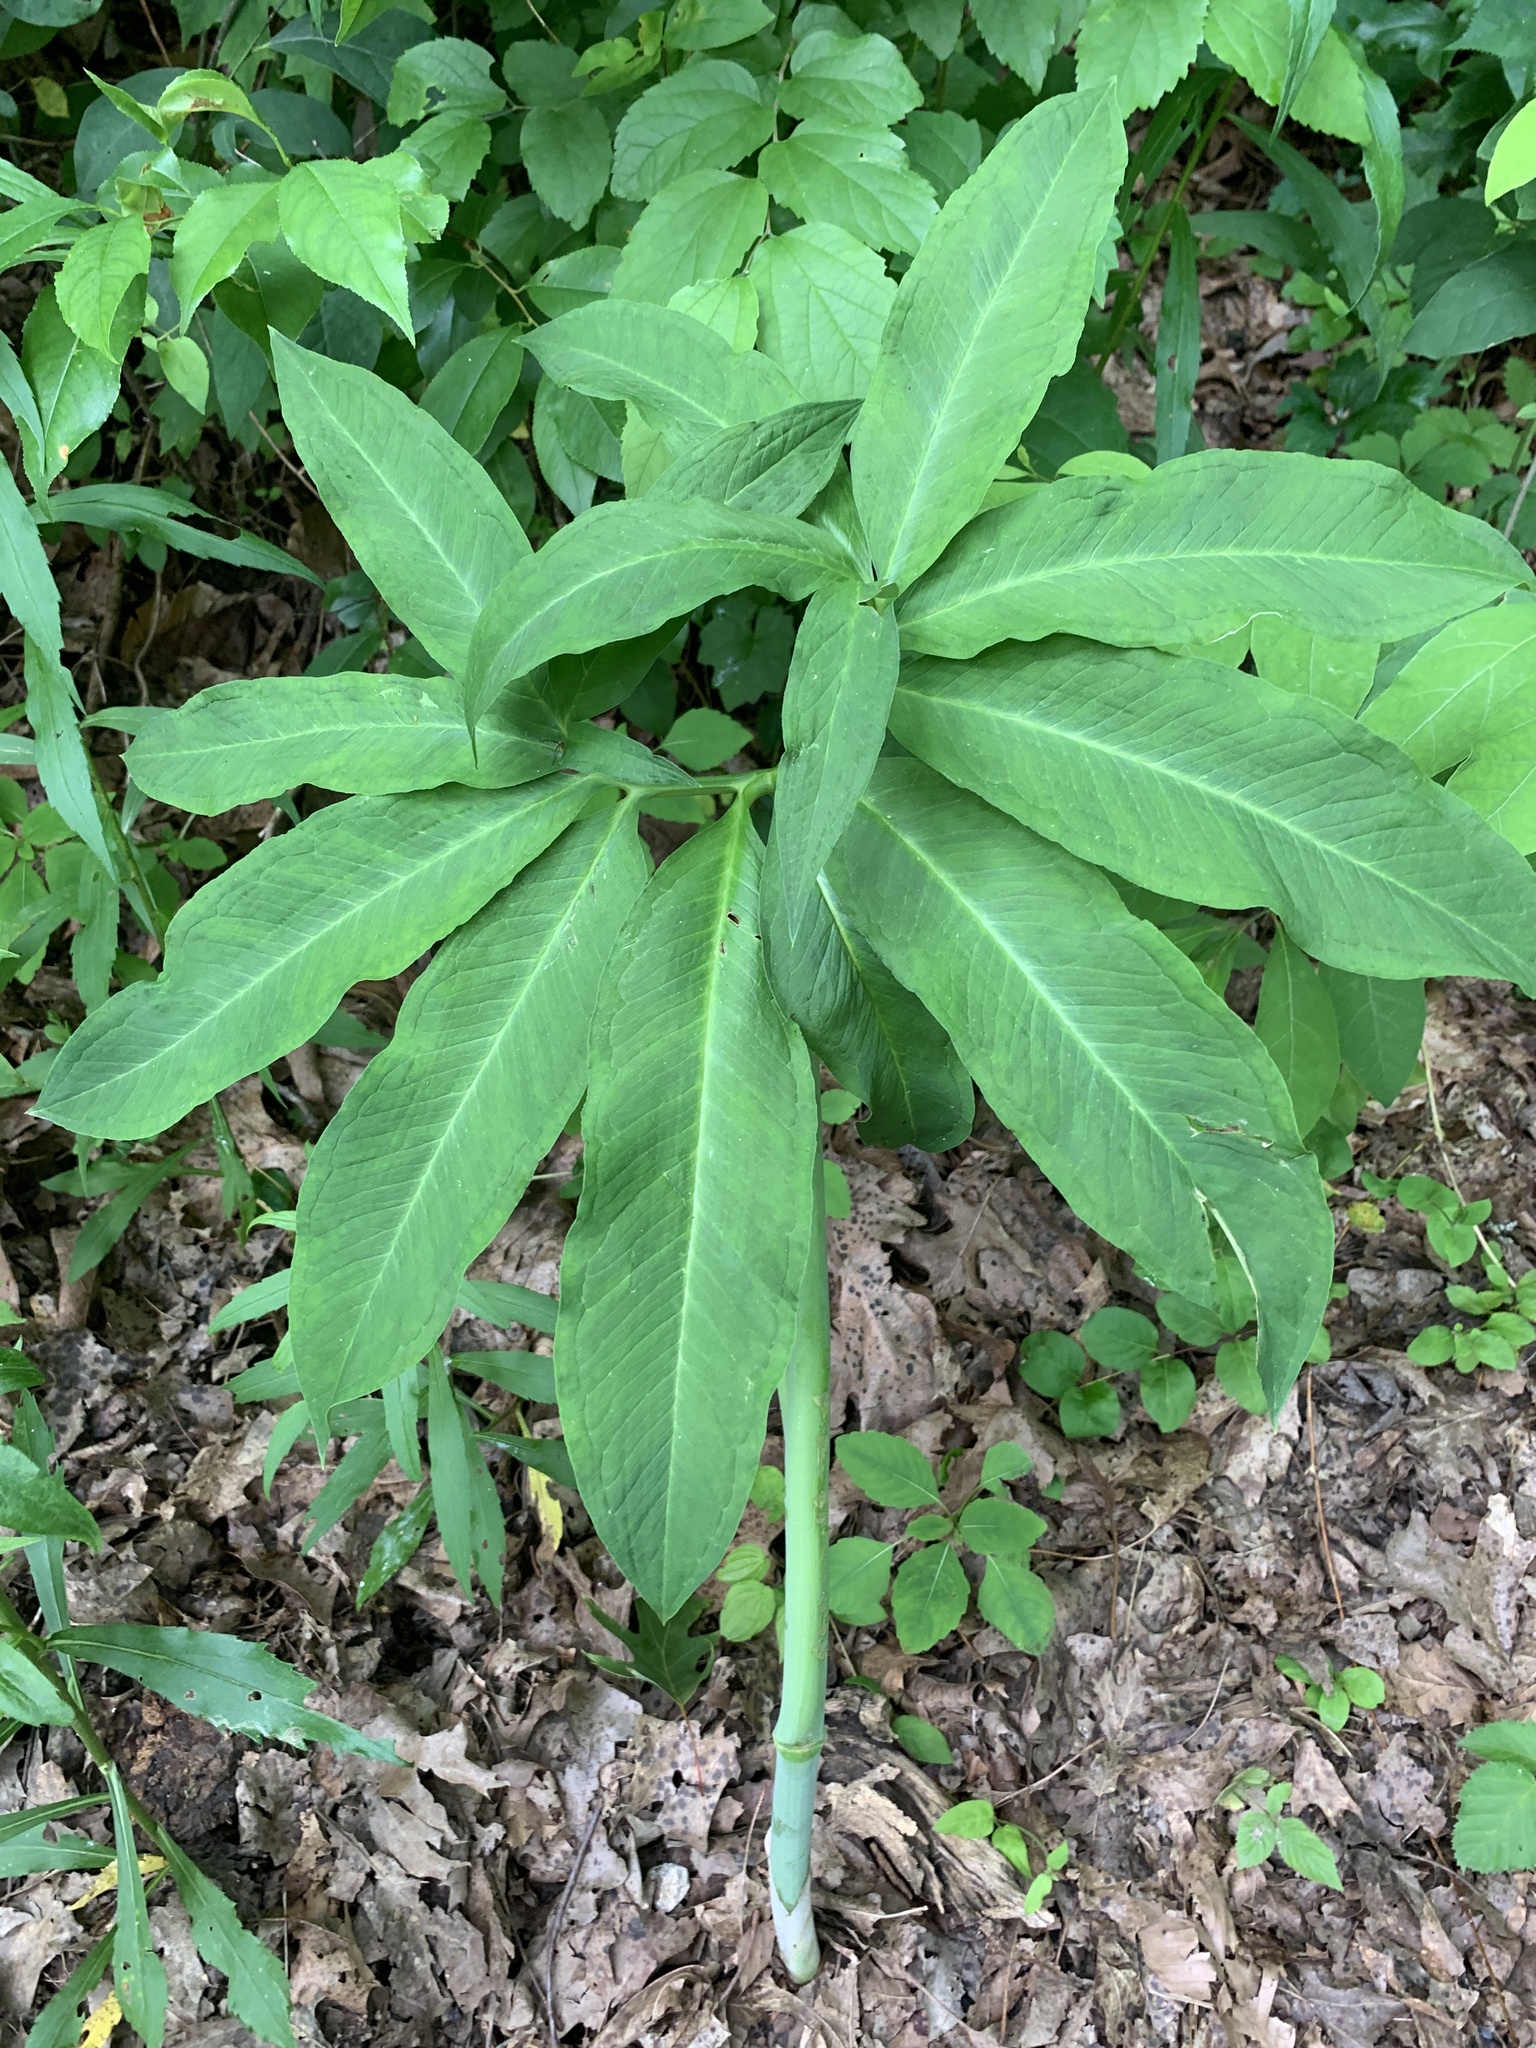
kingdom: Plantae
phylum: Tracheophyta
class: Liliopsida
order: Alismatales
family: Araceae
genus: Arisaema
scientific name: Arisaema dracontium
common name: Dragon-arum
